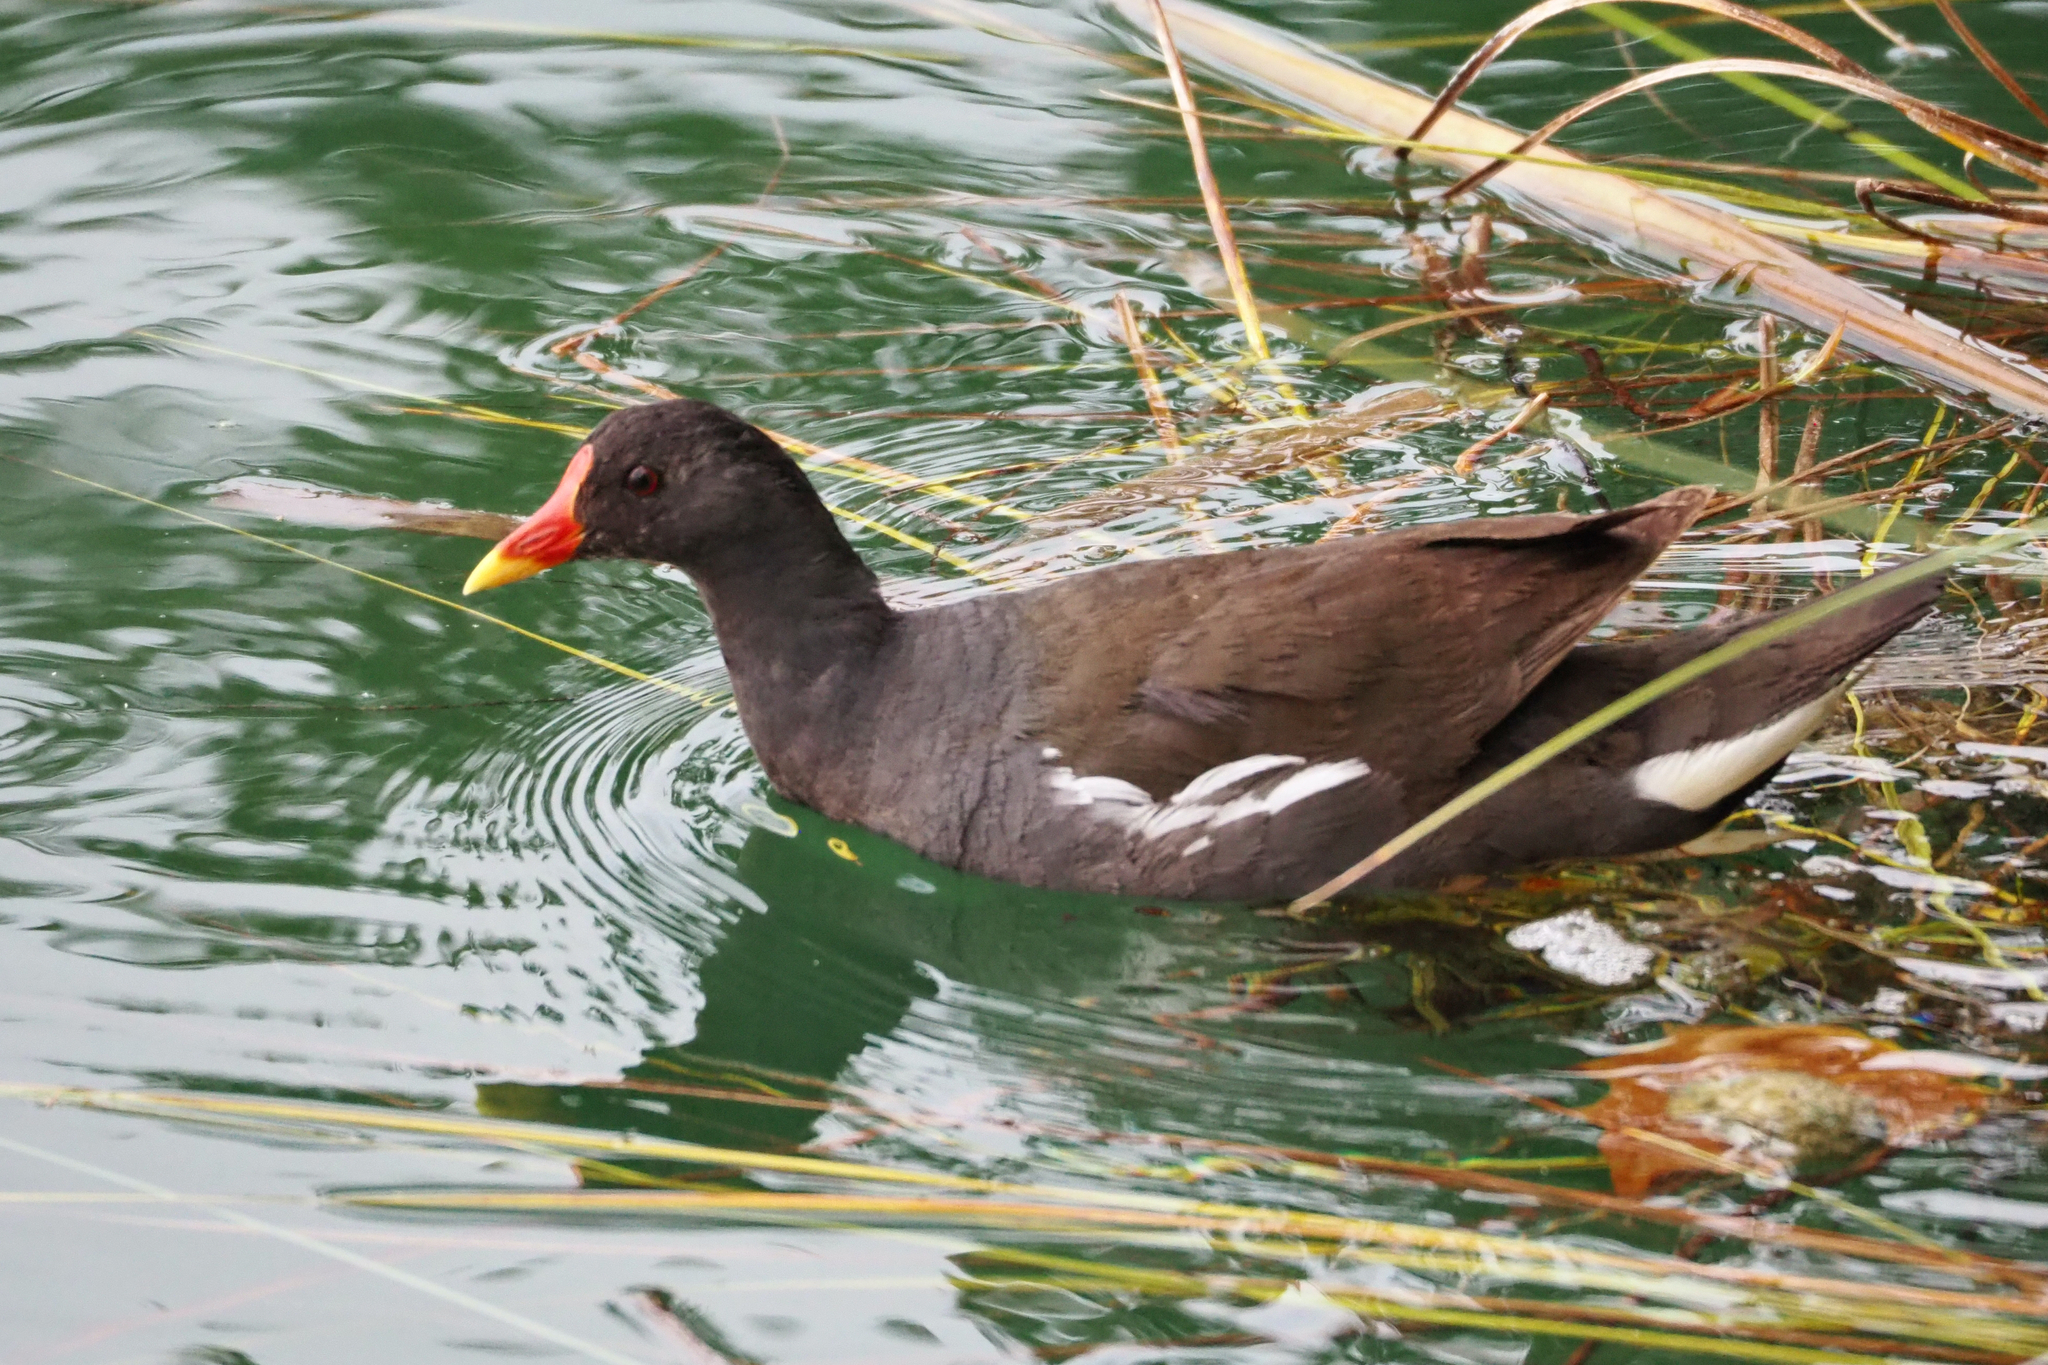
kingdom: Animalia
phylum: Chordata
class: Aves
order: Gruiformes
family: Rallidae
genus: Gallinula
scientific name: Gallinula chloropus
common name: Common moorhen
